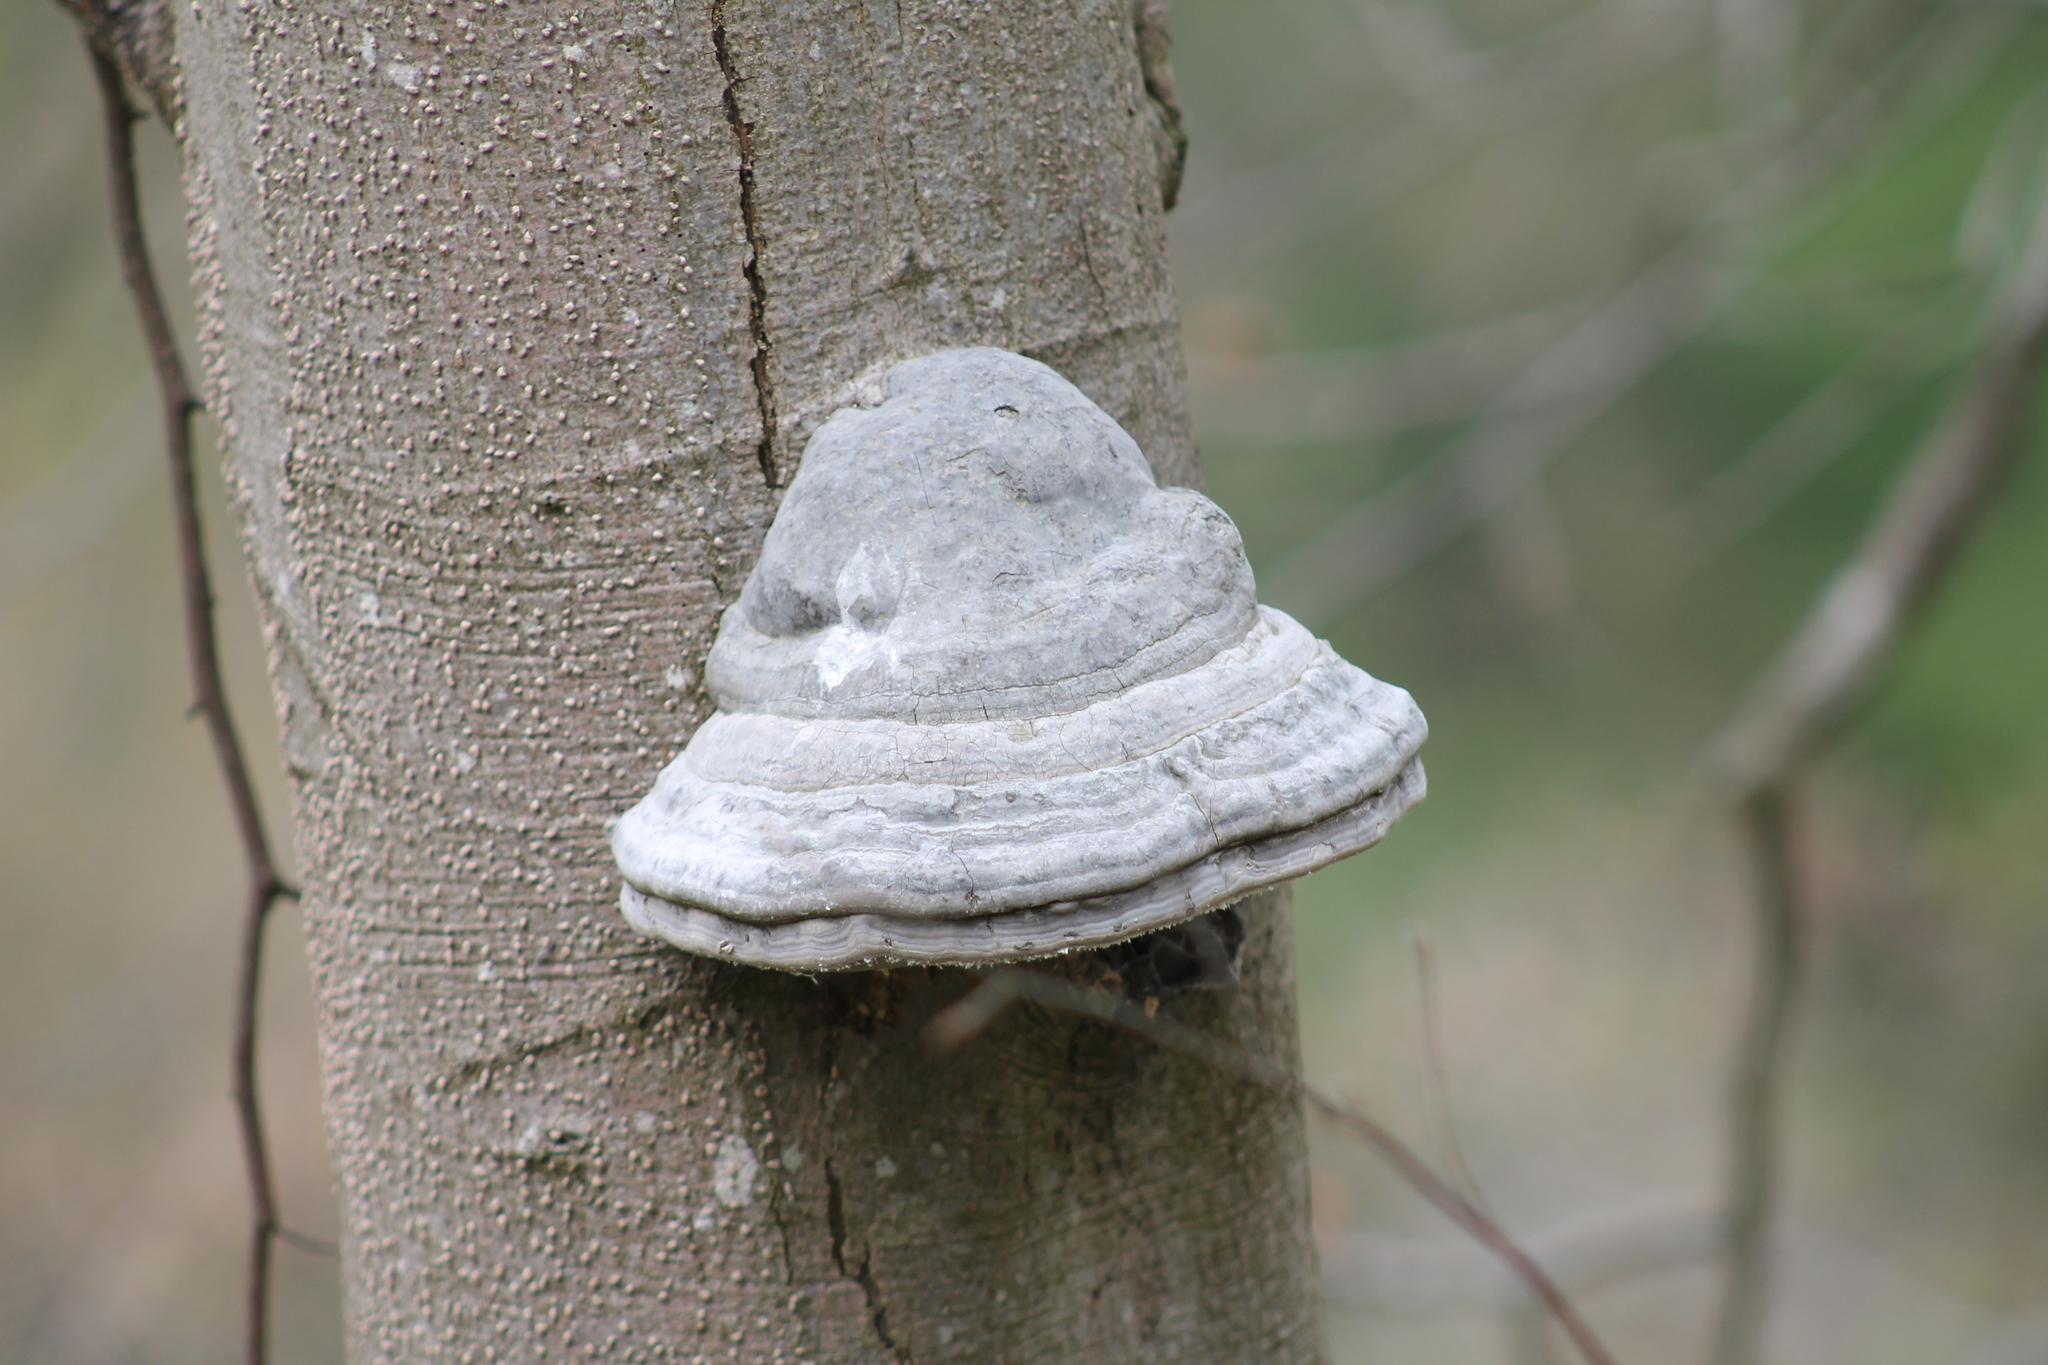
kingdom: Fungi
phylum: Basidiomycota
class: Agaricomycetes
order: Polyporales
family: Polyporaceae
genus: Fomes
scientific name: Fomes fomentarius
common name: Hoof fungus
